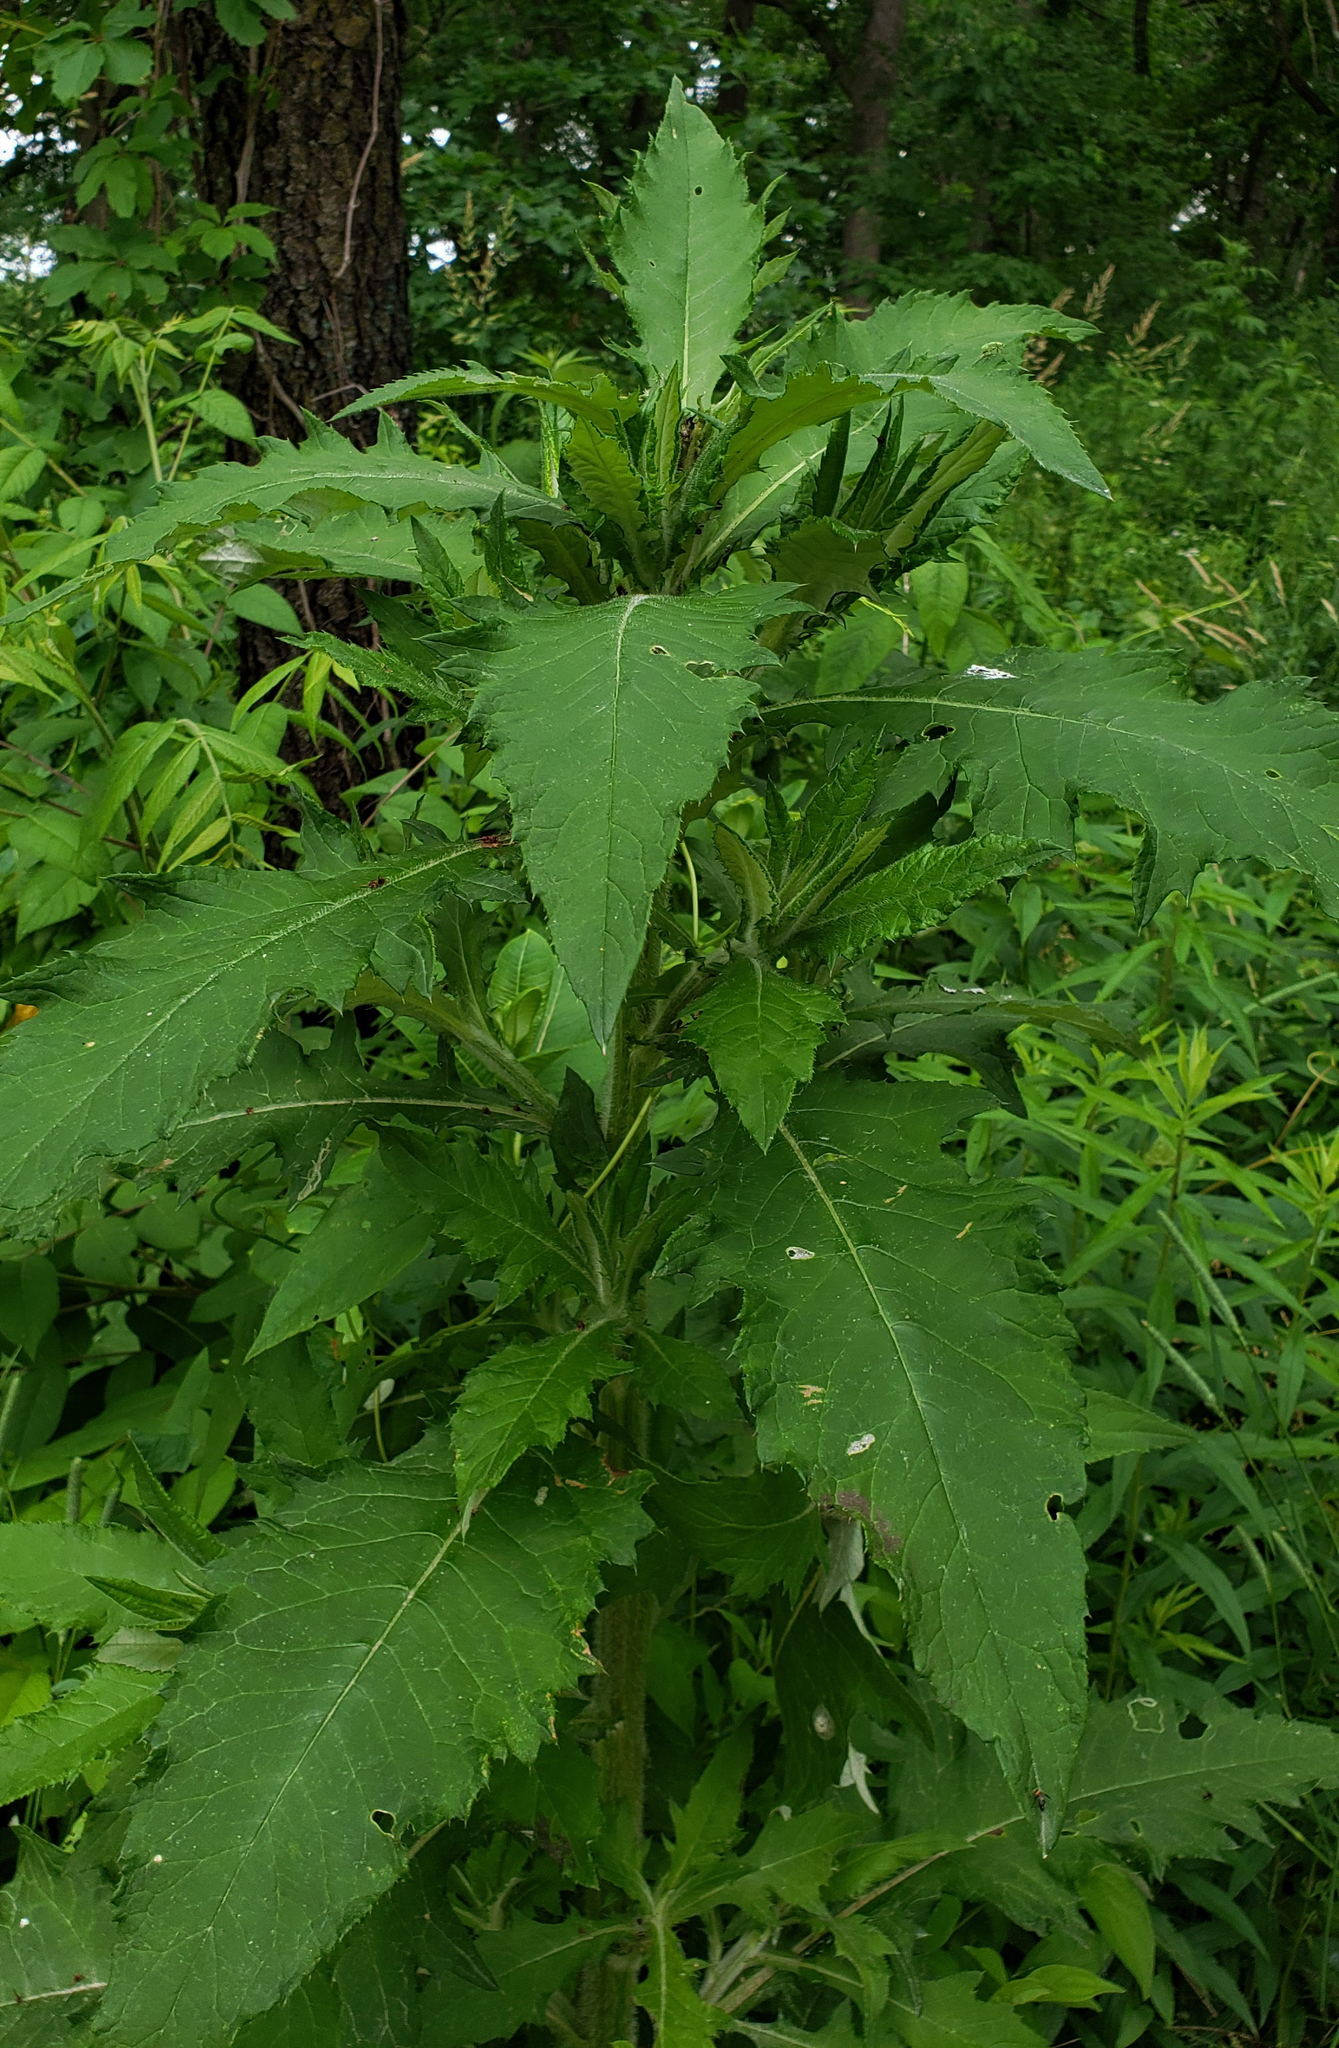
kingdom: Plantae
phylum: Tracheophyta
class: Magnoliopsida
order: Asterales
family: Asteraceae
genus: Cirsium
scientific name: Cirsium altissimum
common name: Roadside thistle
